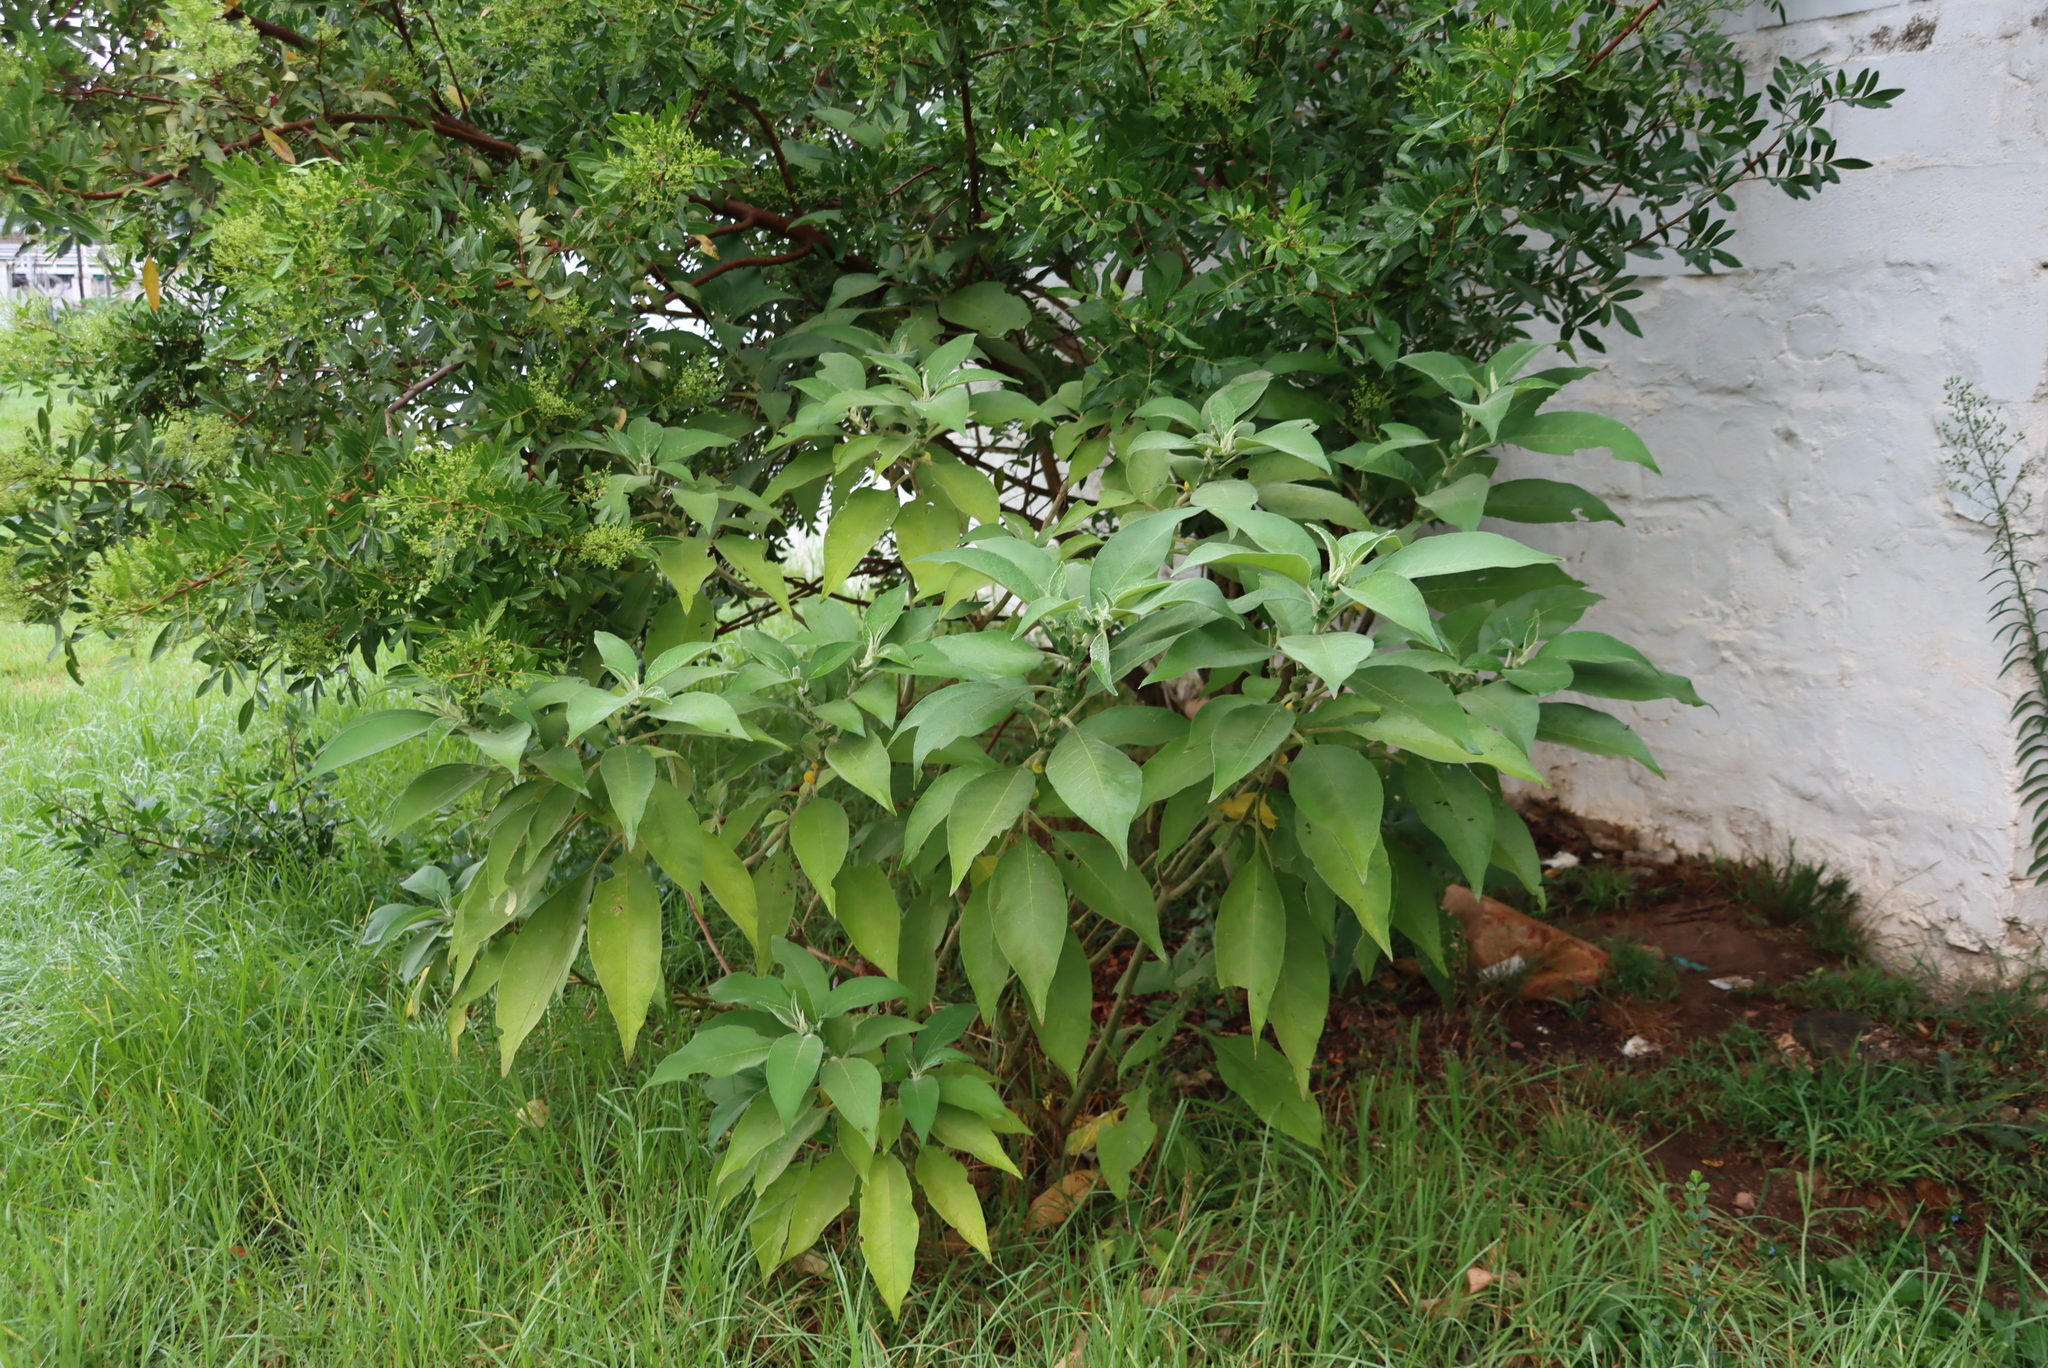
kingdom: Plantae
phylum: Tracheophyta
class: Magnoliopsida
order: Solanales
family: Solanaceae
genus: Solanum
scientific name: Solanum mauritianum
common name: Earleaf nightshade
